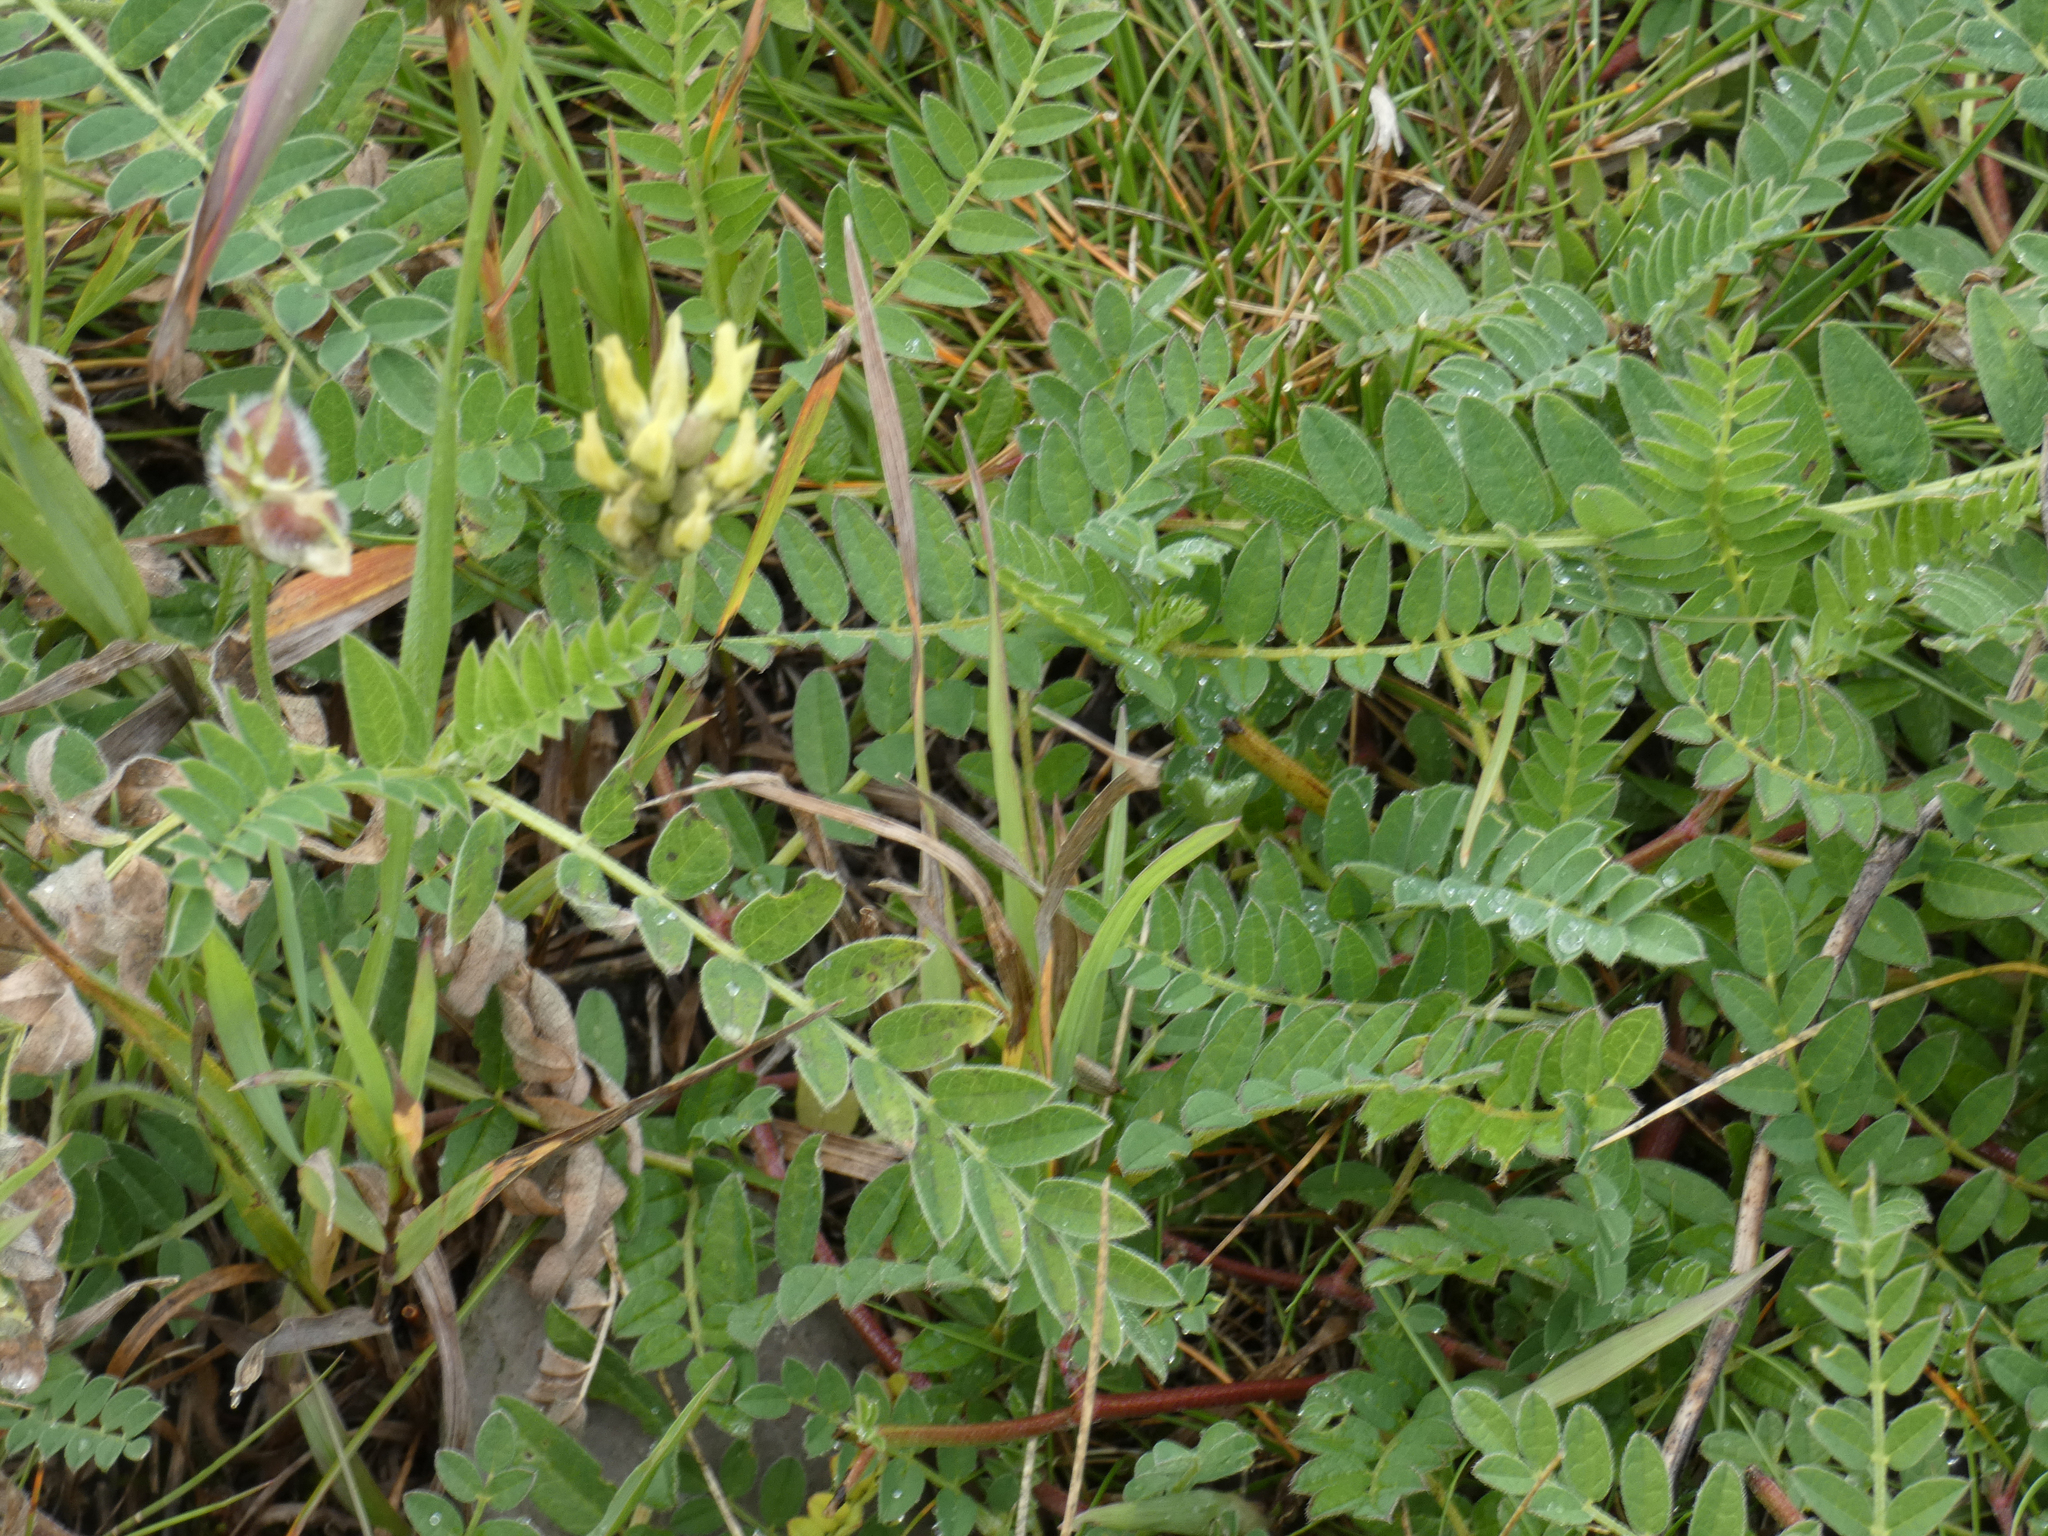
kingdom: Plantae
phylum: Tracheophyta
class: Magnoliopsida
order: Fabales
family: Fabaceae
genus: Astragalus
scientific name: Astragalus cicer
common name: Chick-pea milk-vetch
